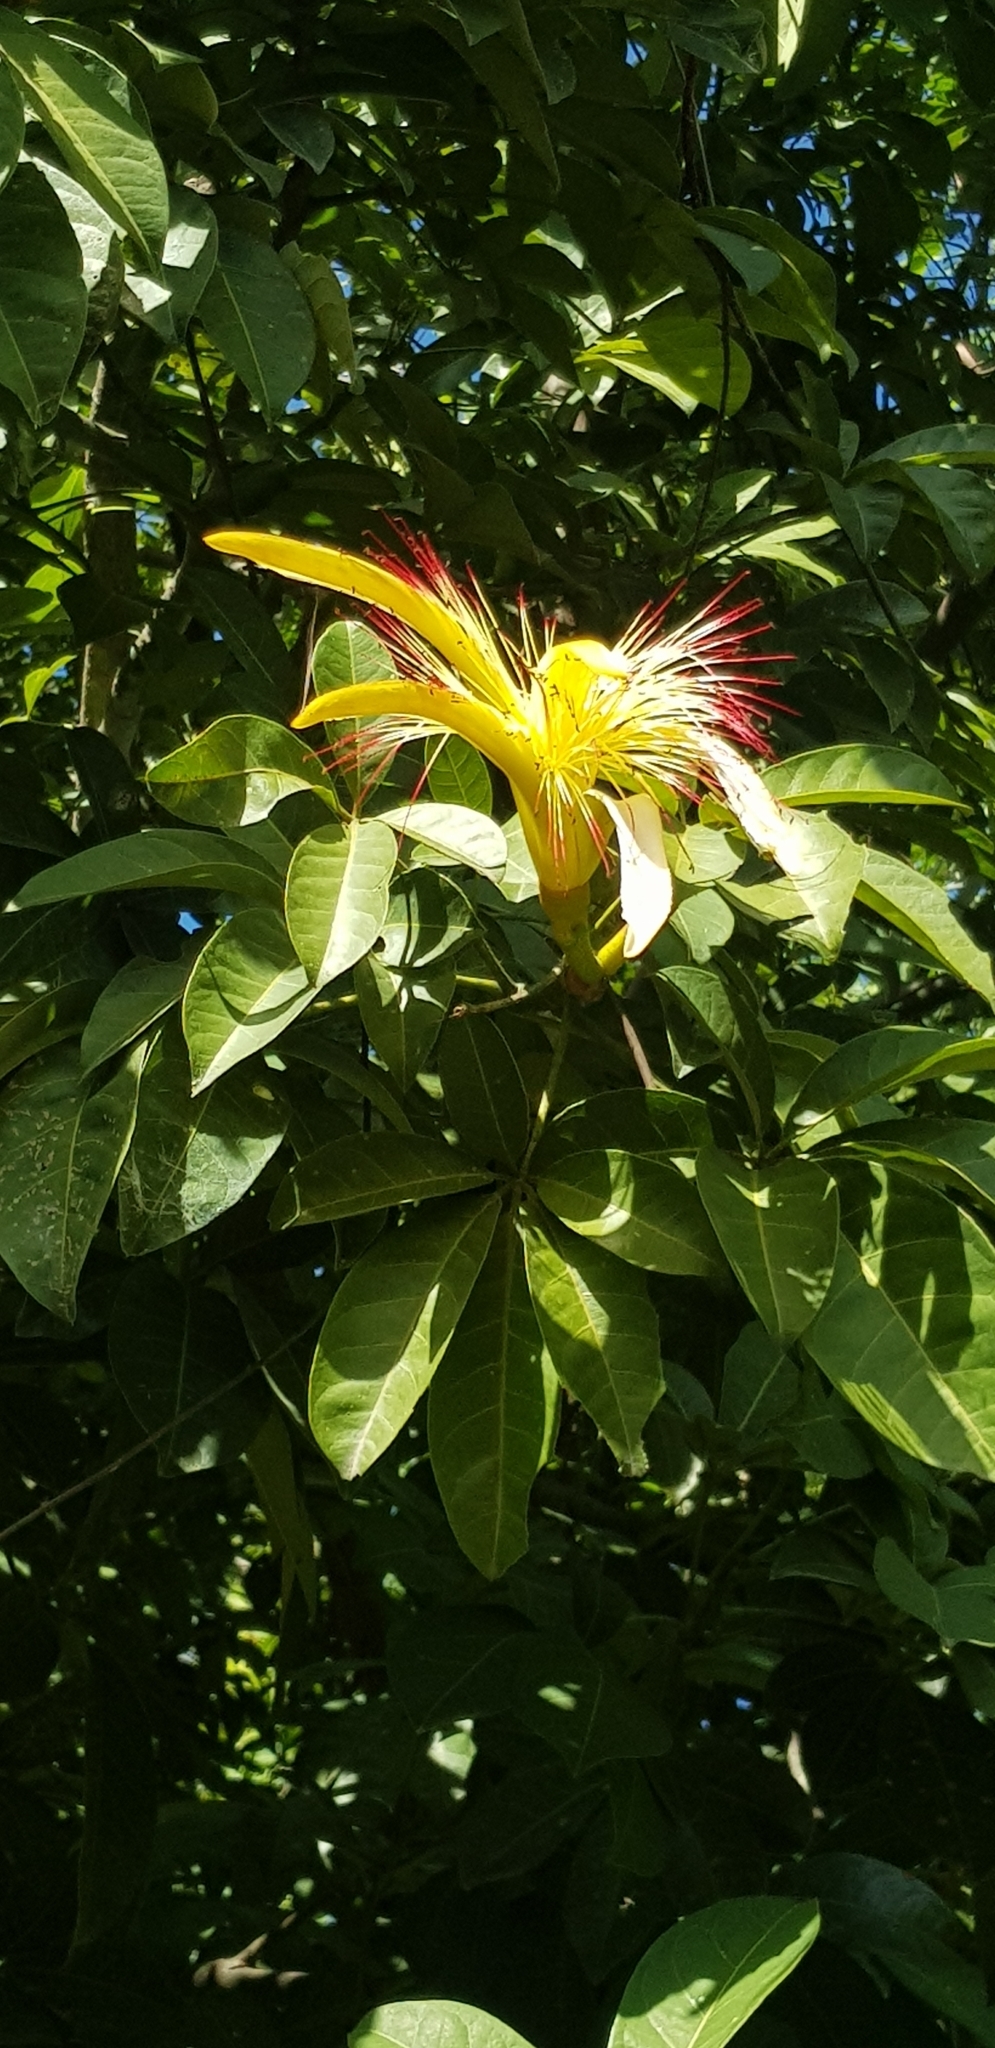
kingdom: Plantae
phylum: Tracheophyta
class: Magnoliopsida
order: Malvales
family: Malvaceae
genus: Pachira
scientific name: Pachira aquatica
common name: Provision-tree
